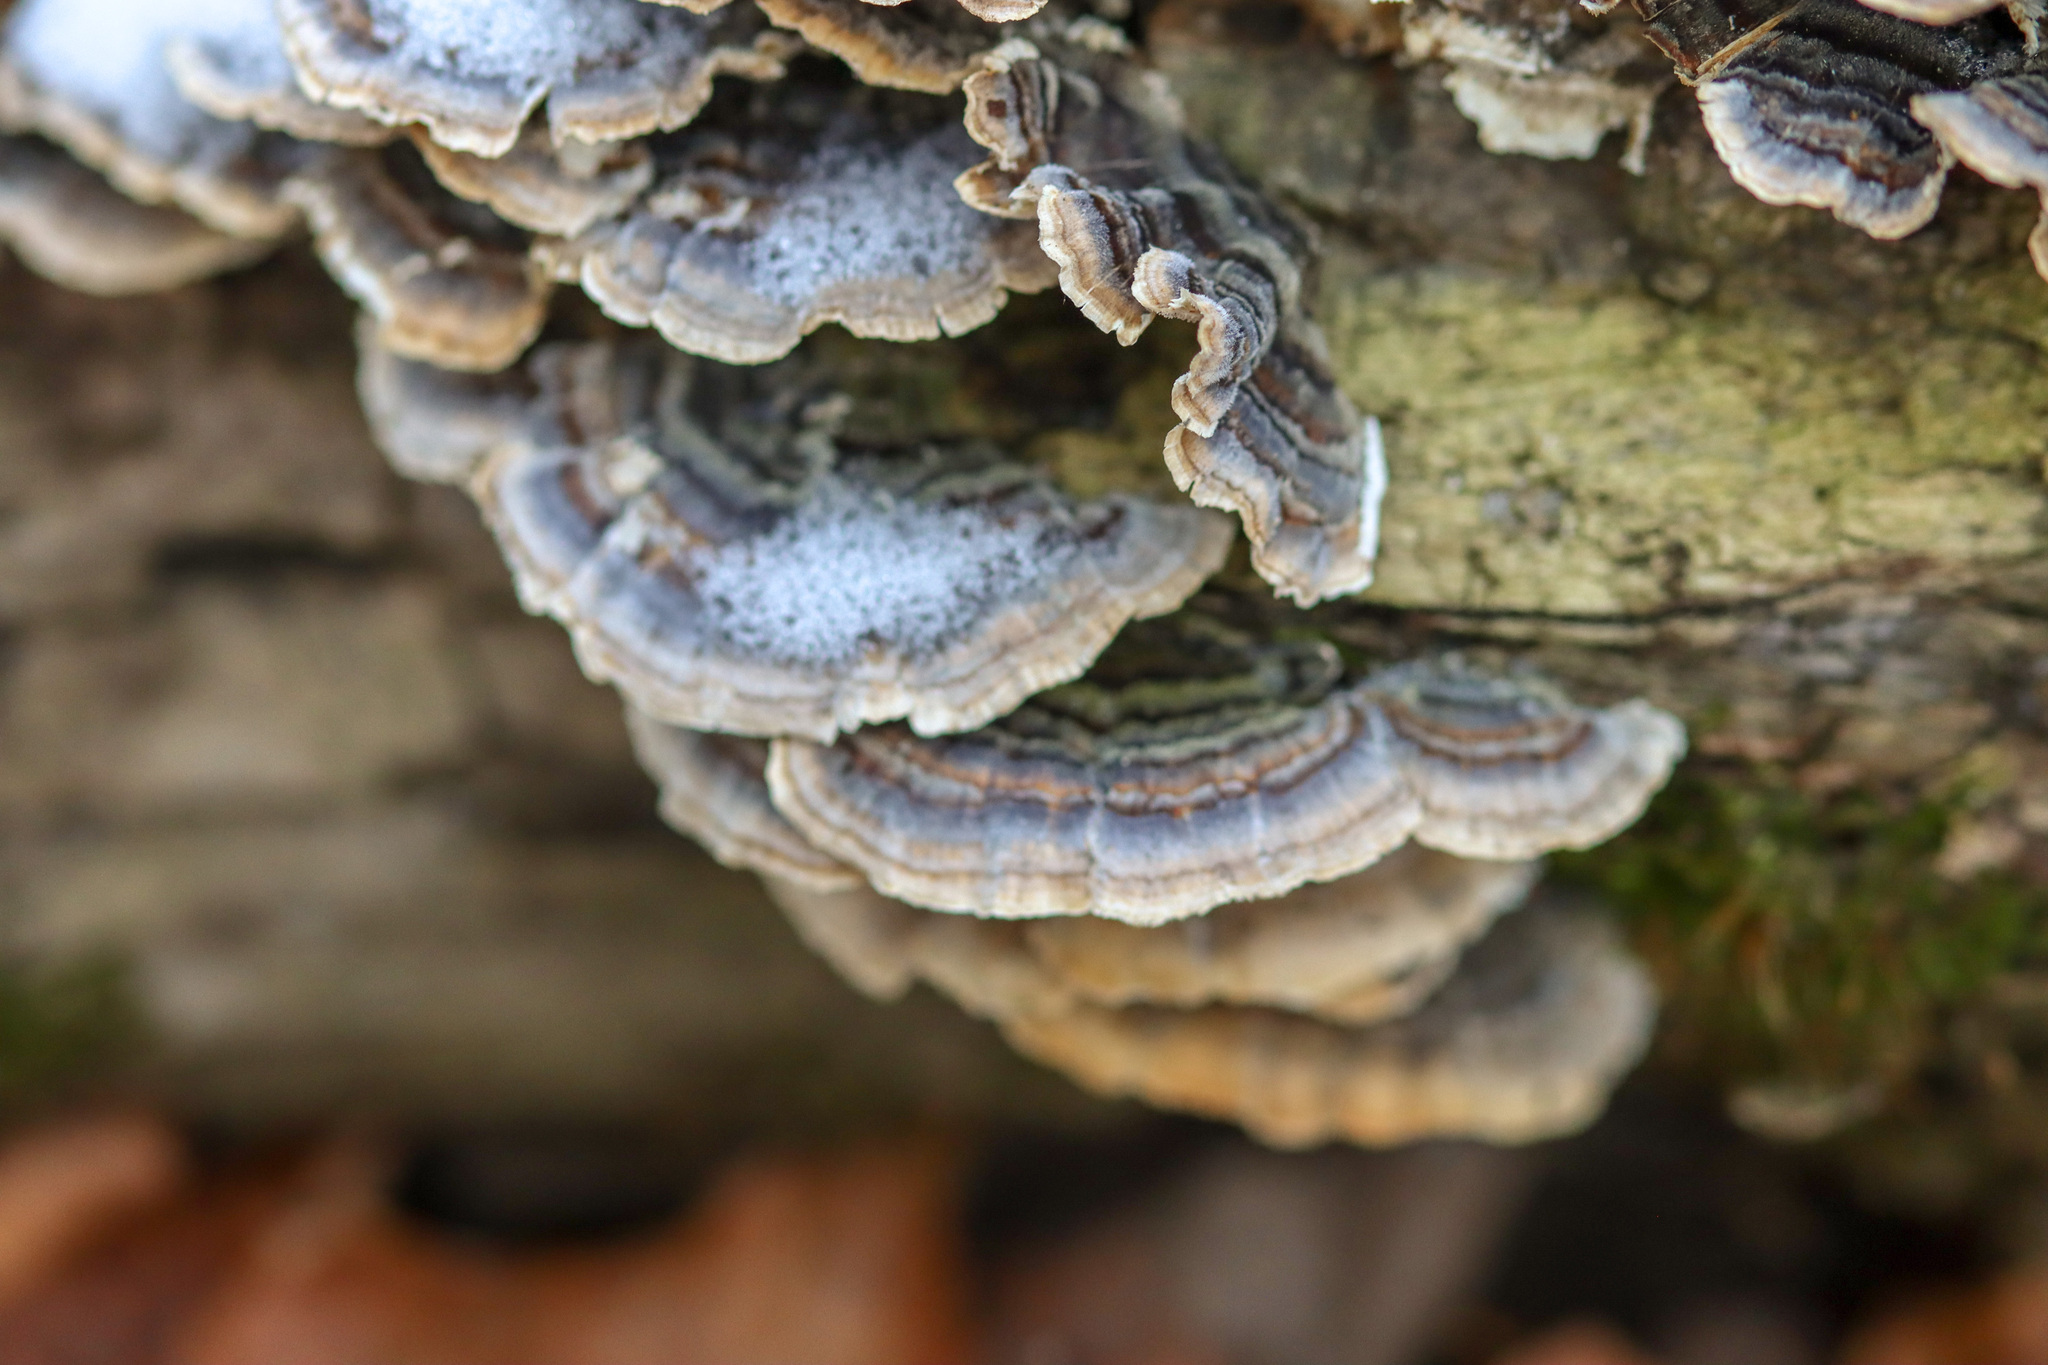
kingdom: Fungi
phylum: Basidiomycota
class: Agaricomycetes
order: Polyporales
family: Polyporaceae
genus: Trametes
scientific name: Trametes versicolor
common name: Turkeytail
